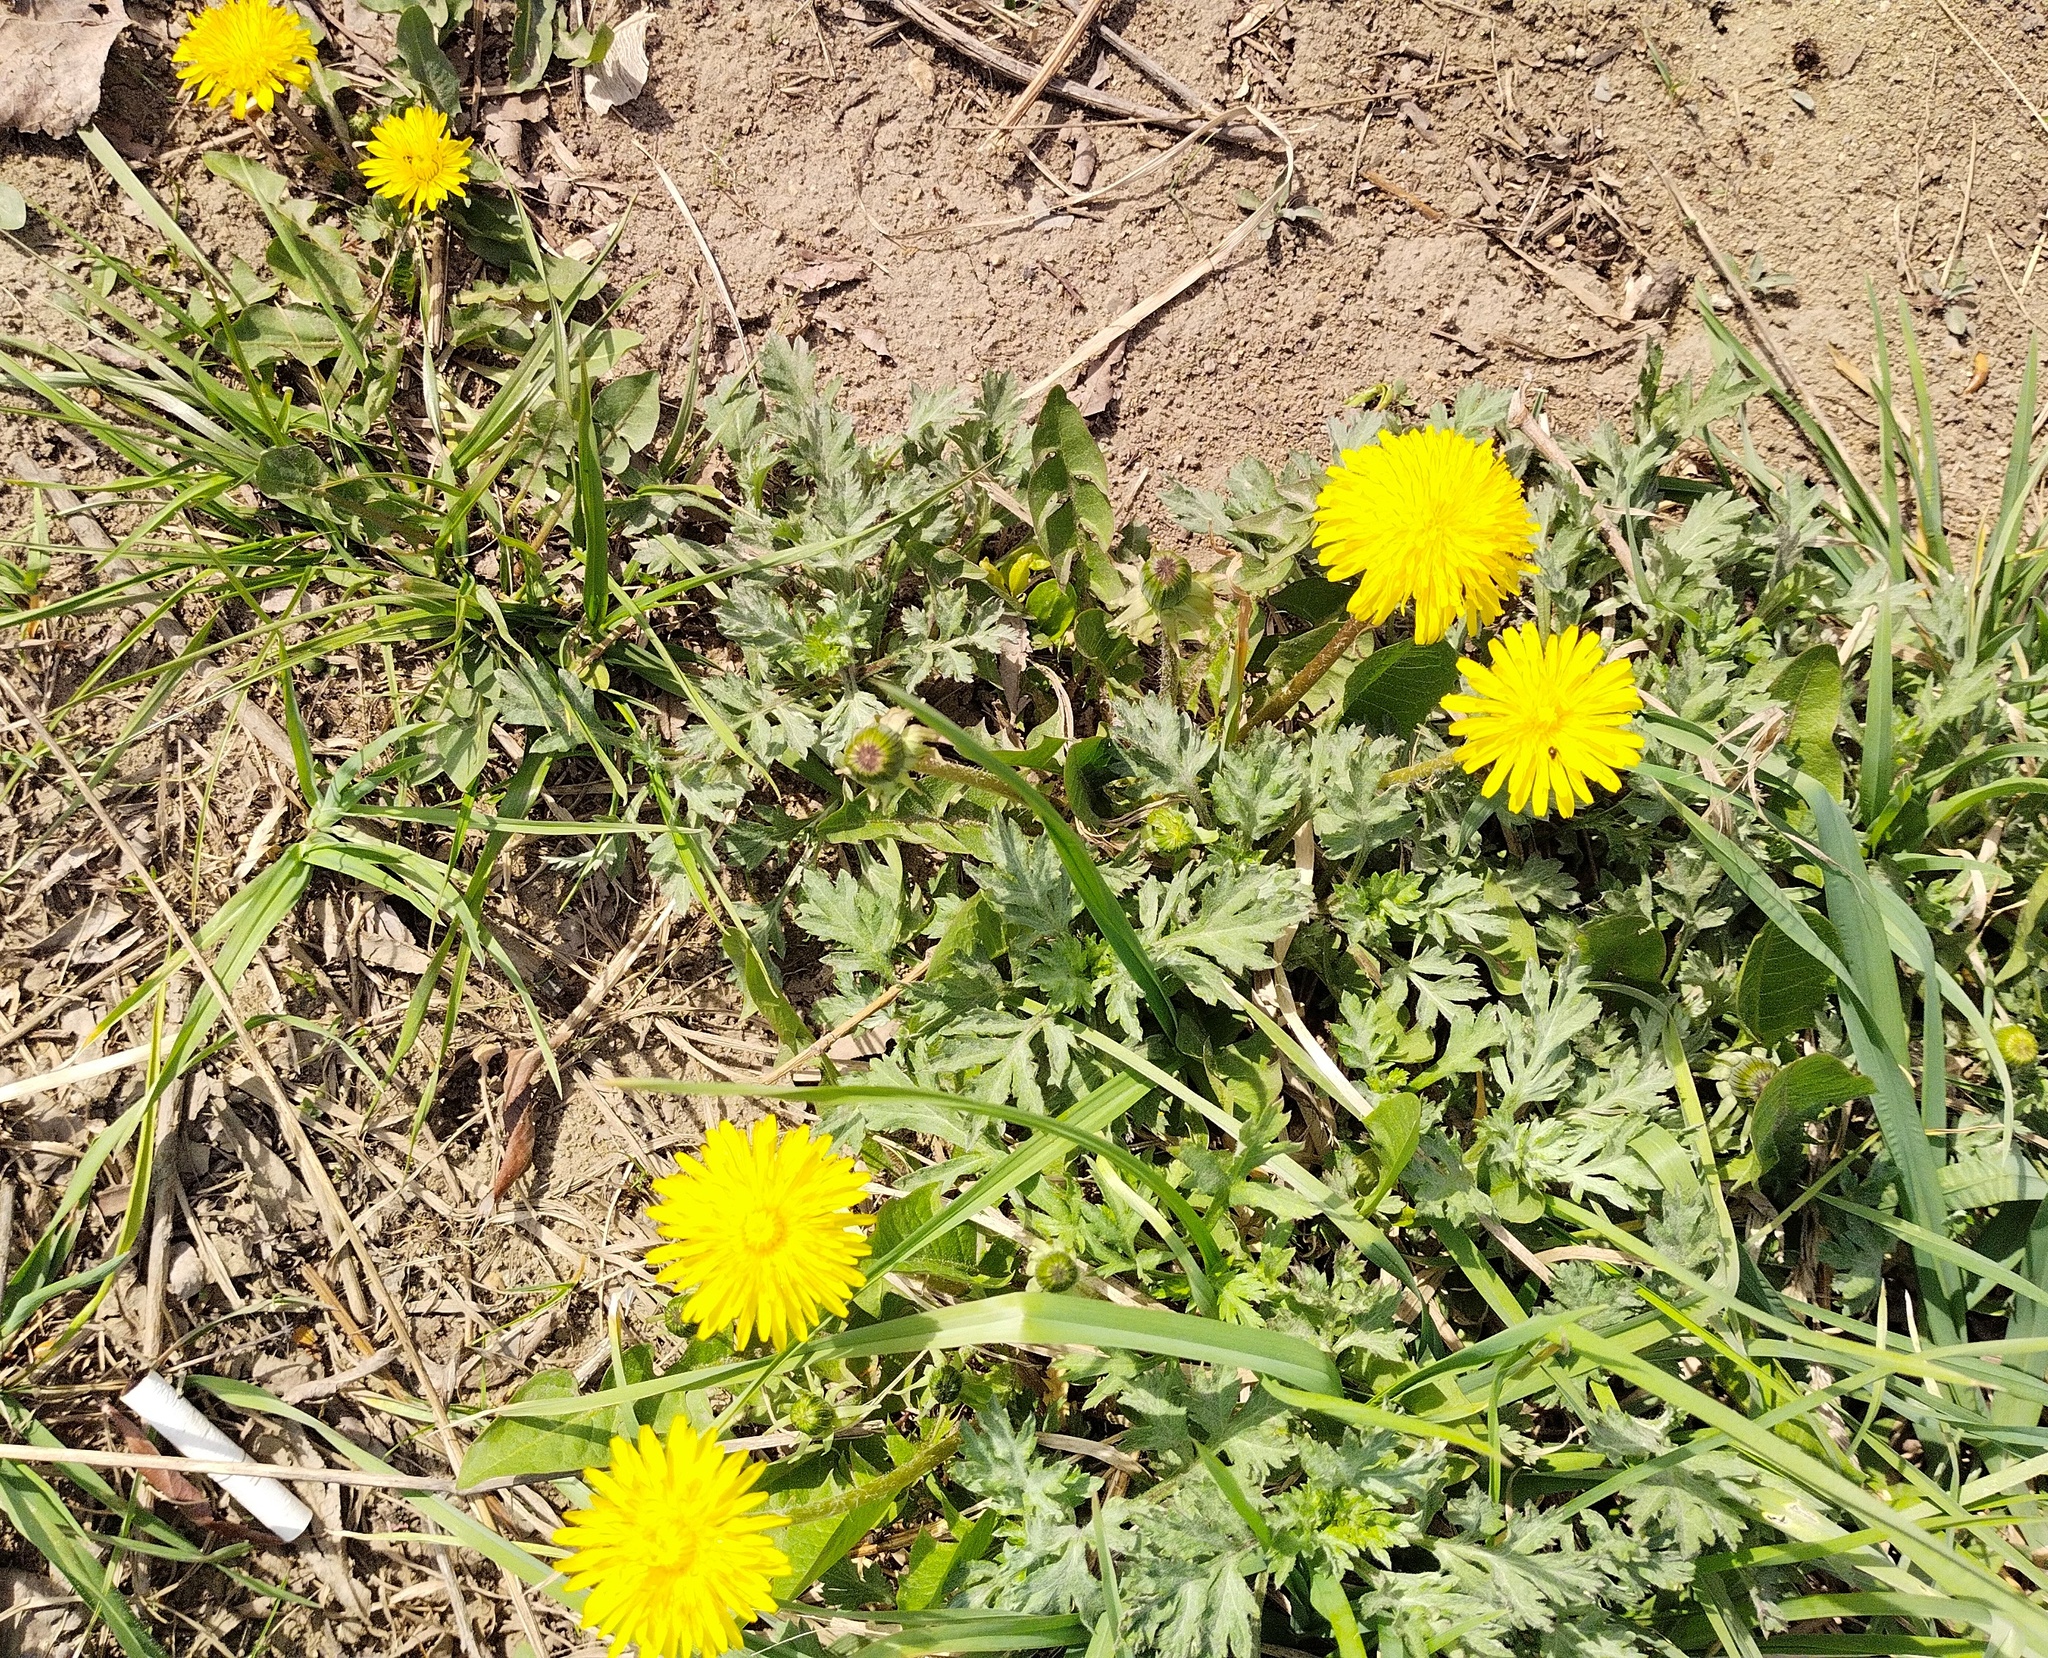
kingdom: Plantae
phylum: Tracheophyta
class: Magnoliopsida
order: Asterales
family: Asteraceae
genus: Taraxacum
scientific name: Taraxacum officinale
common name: Common dandelion
